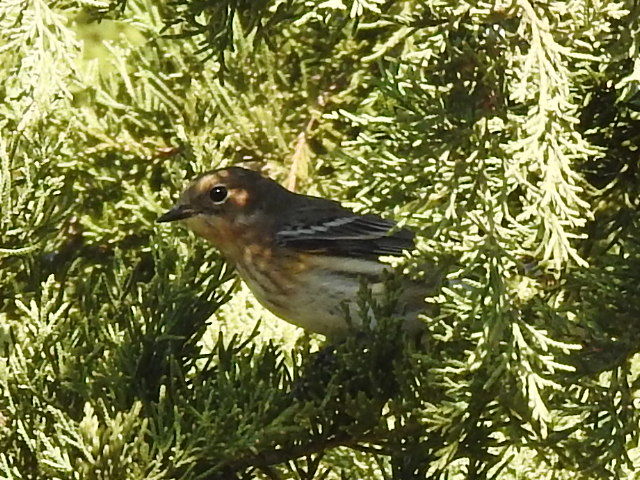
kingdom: Animalia
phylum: Chordata
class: Aves
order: Passeriformes
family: Parulidae
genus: Setophaga
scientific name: Setophaga coronata
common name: Myrtle warbler
